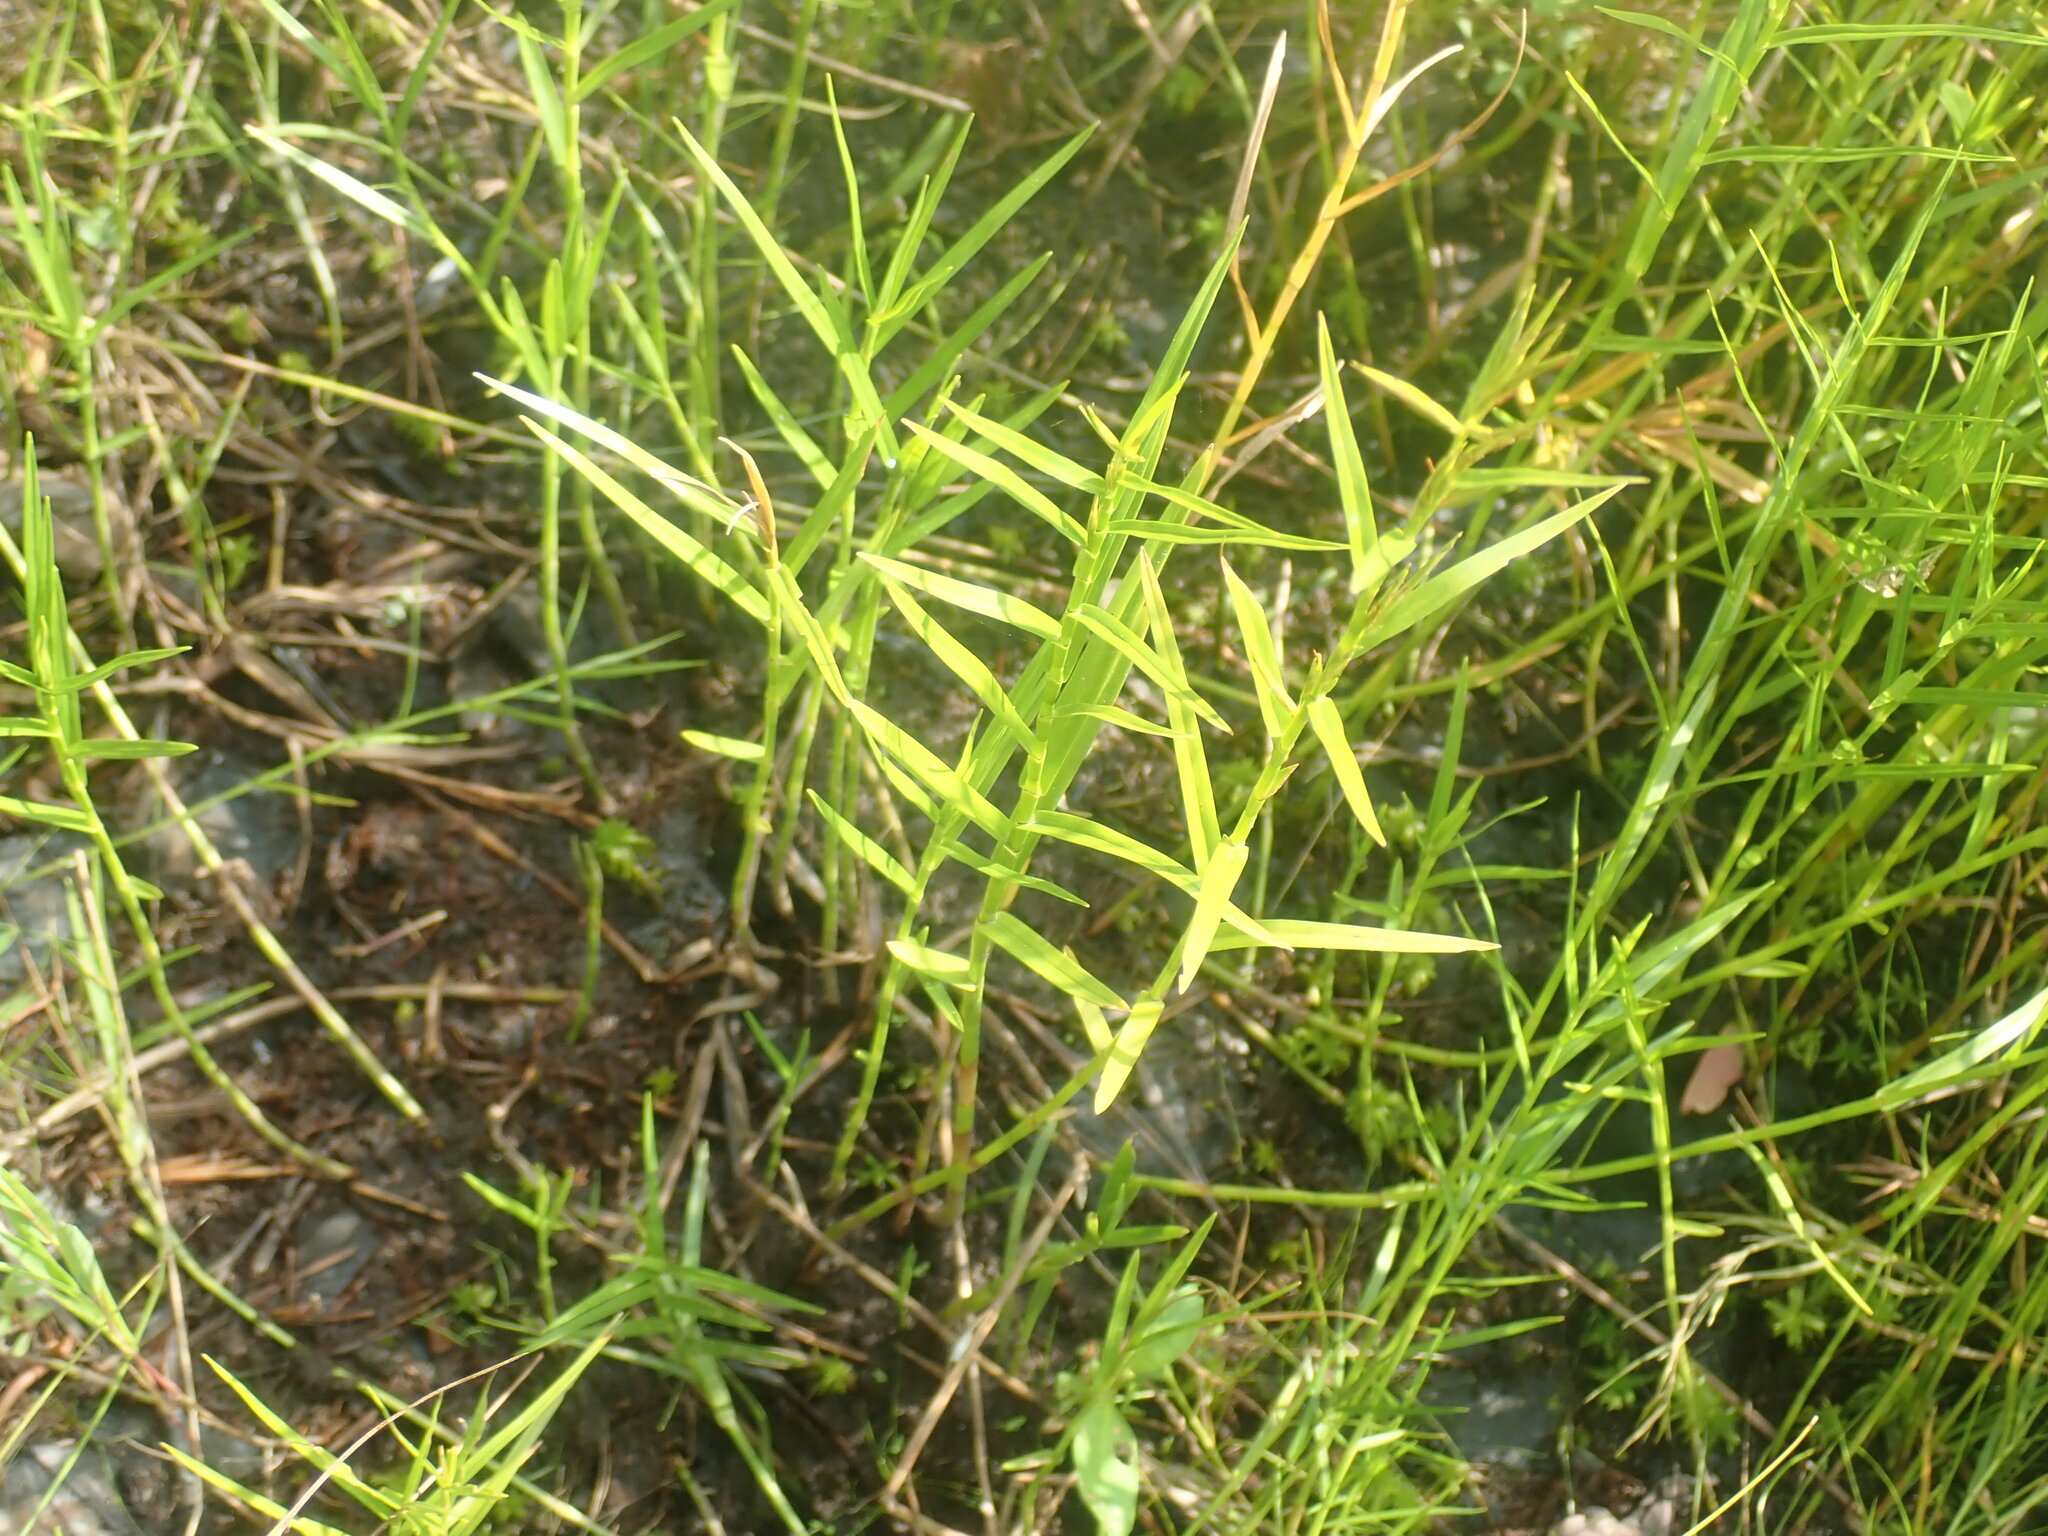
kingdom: Plantae
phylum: Tracheophyta
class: Liliopsida
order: Poales
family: Cyperaceae
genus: Dulichium
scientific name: Dulichium arundinaceum
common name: Three-way sedge
